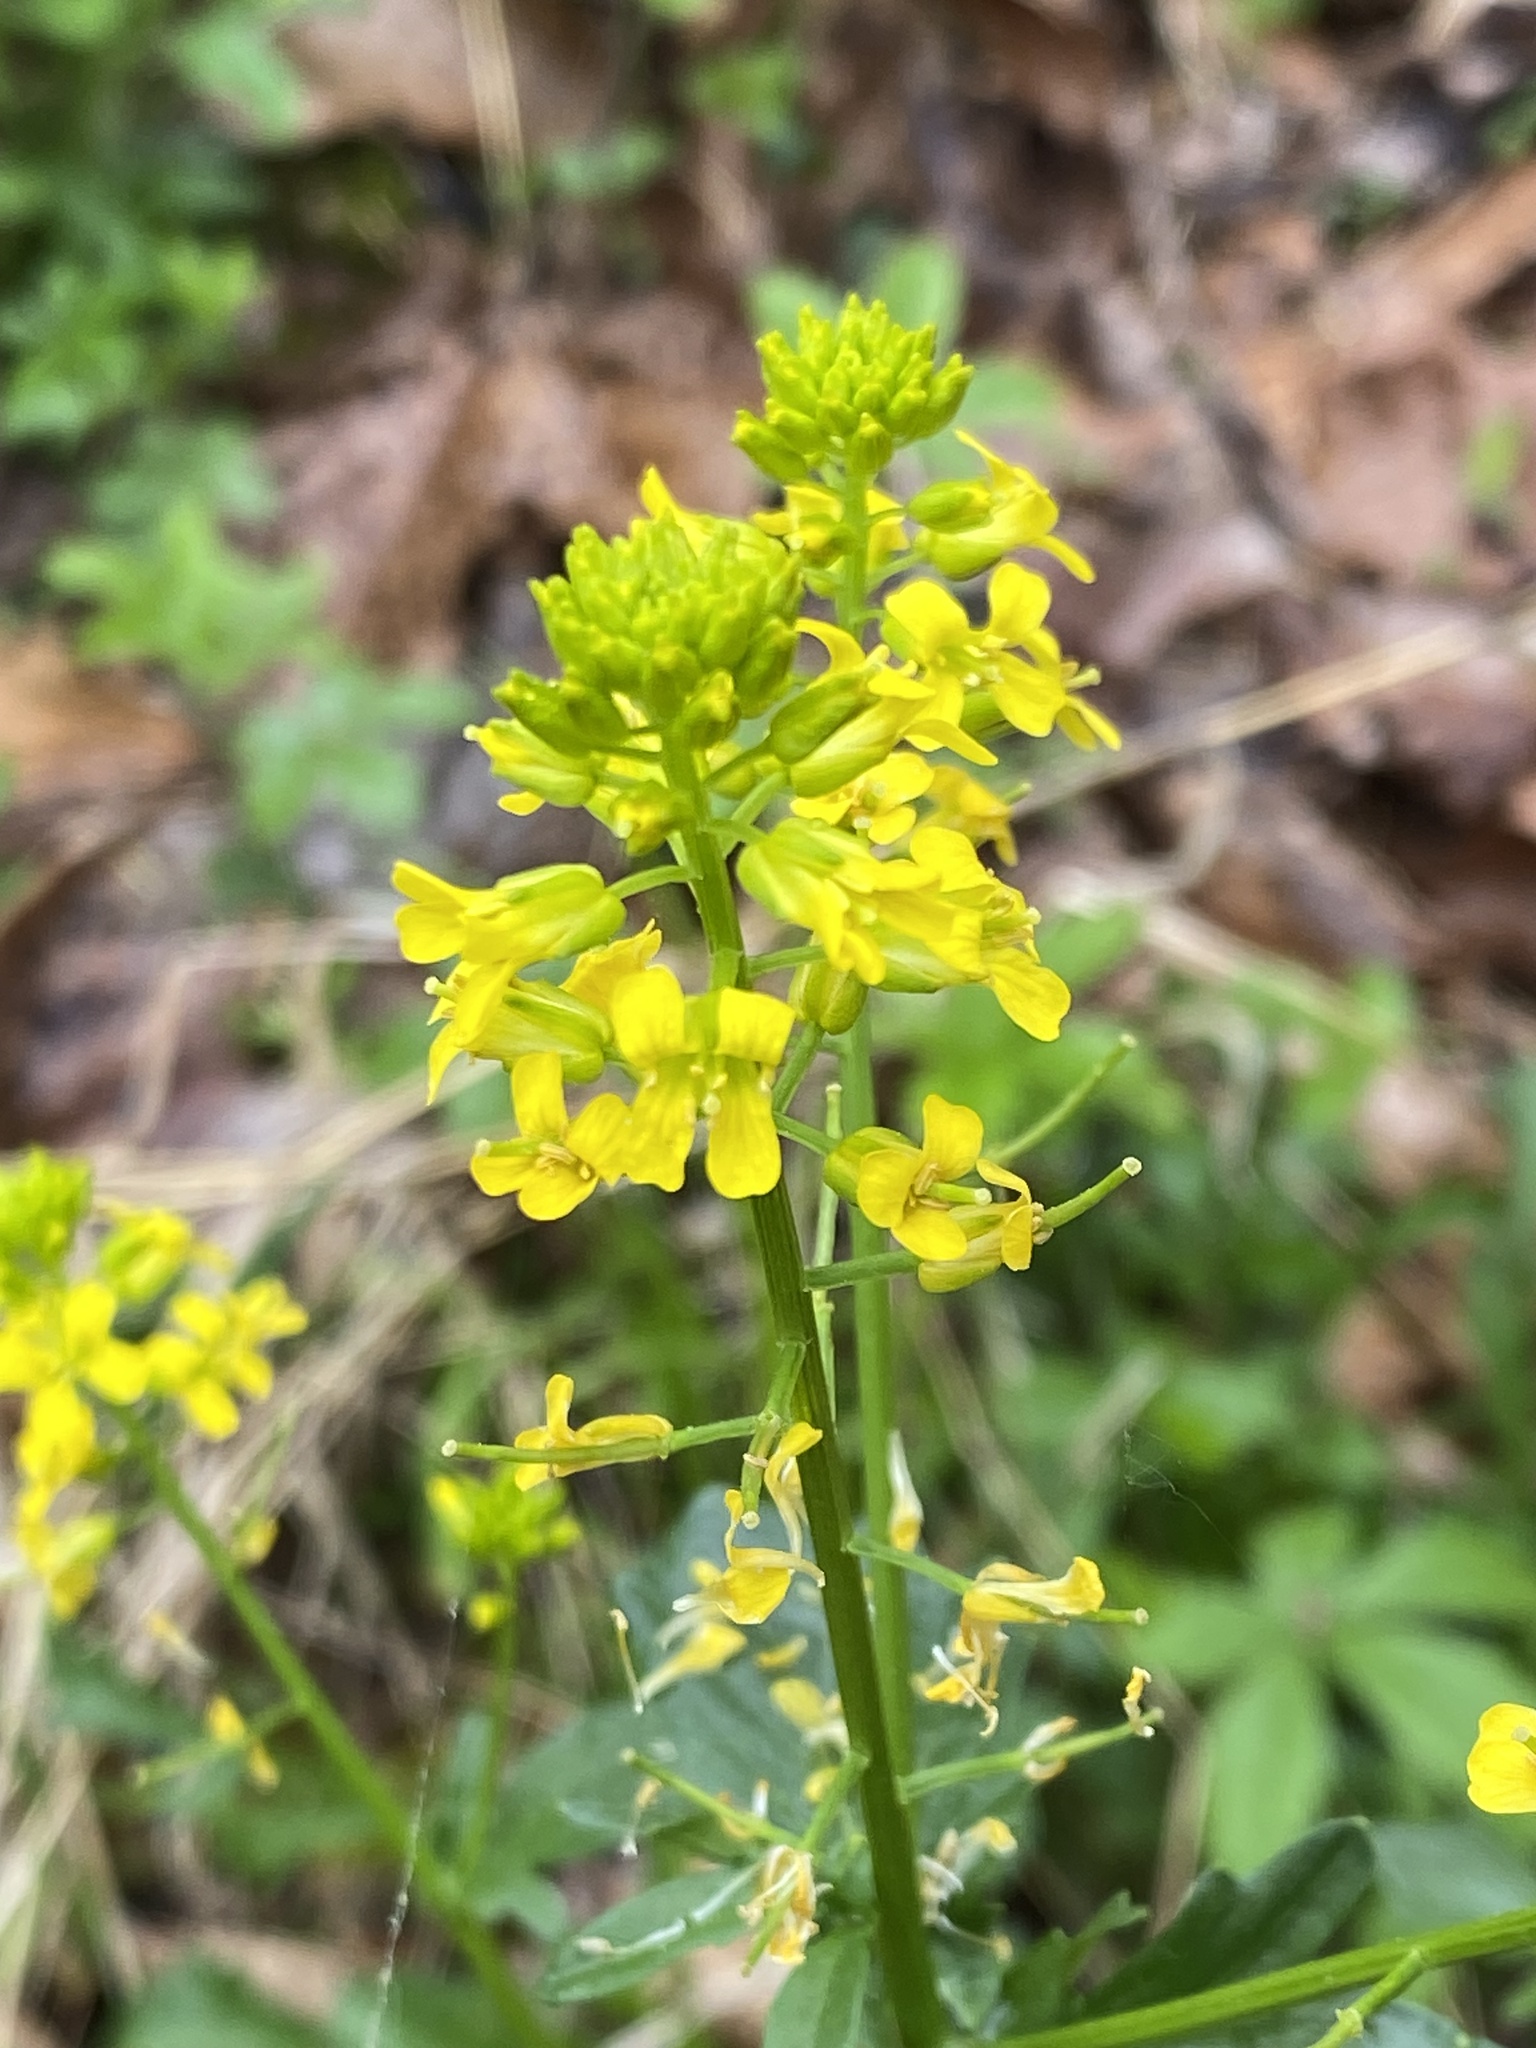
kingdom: Plantae
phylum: Tracheophyta
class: Magnoliopsida
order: Brassicales
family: Brassicaceae
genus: Barbarea
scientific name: Barbarea vulgaris
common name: Cressy-greens
